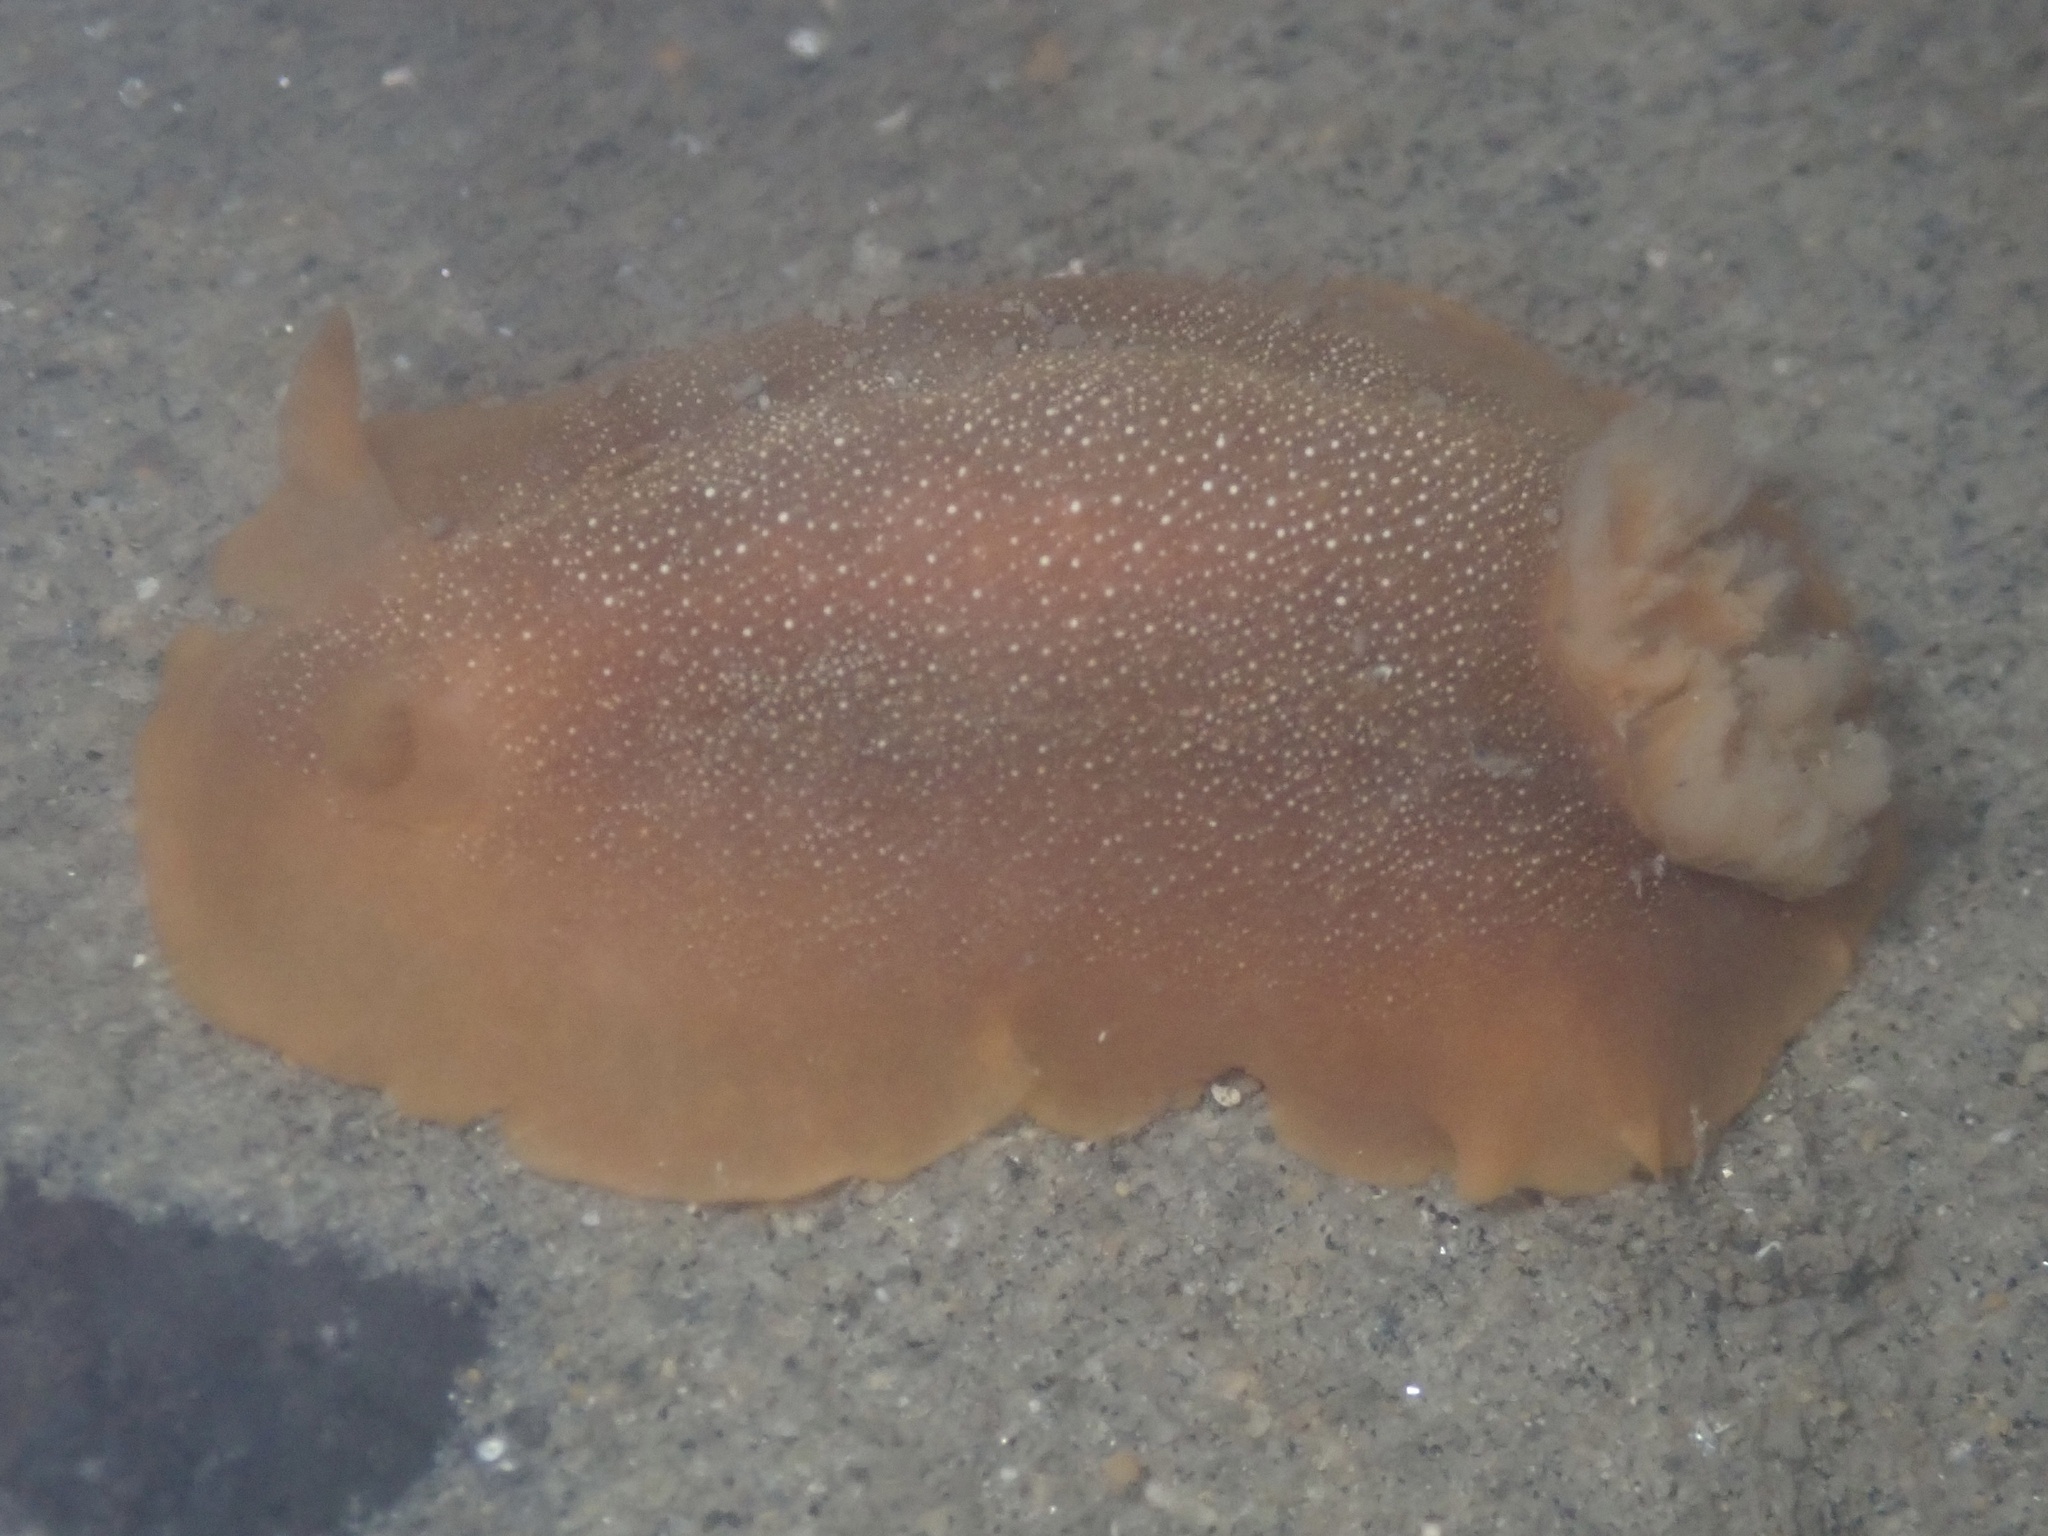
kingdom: Animalia
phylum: Mollusca
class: Gastropoda
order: Nudibranchia
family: Dendrodorididae
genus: Doriopsilla
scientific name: Doriopsilla albopunctata
